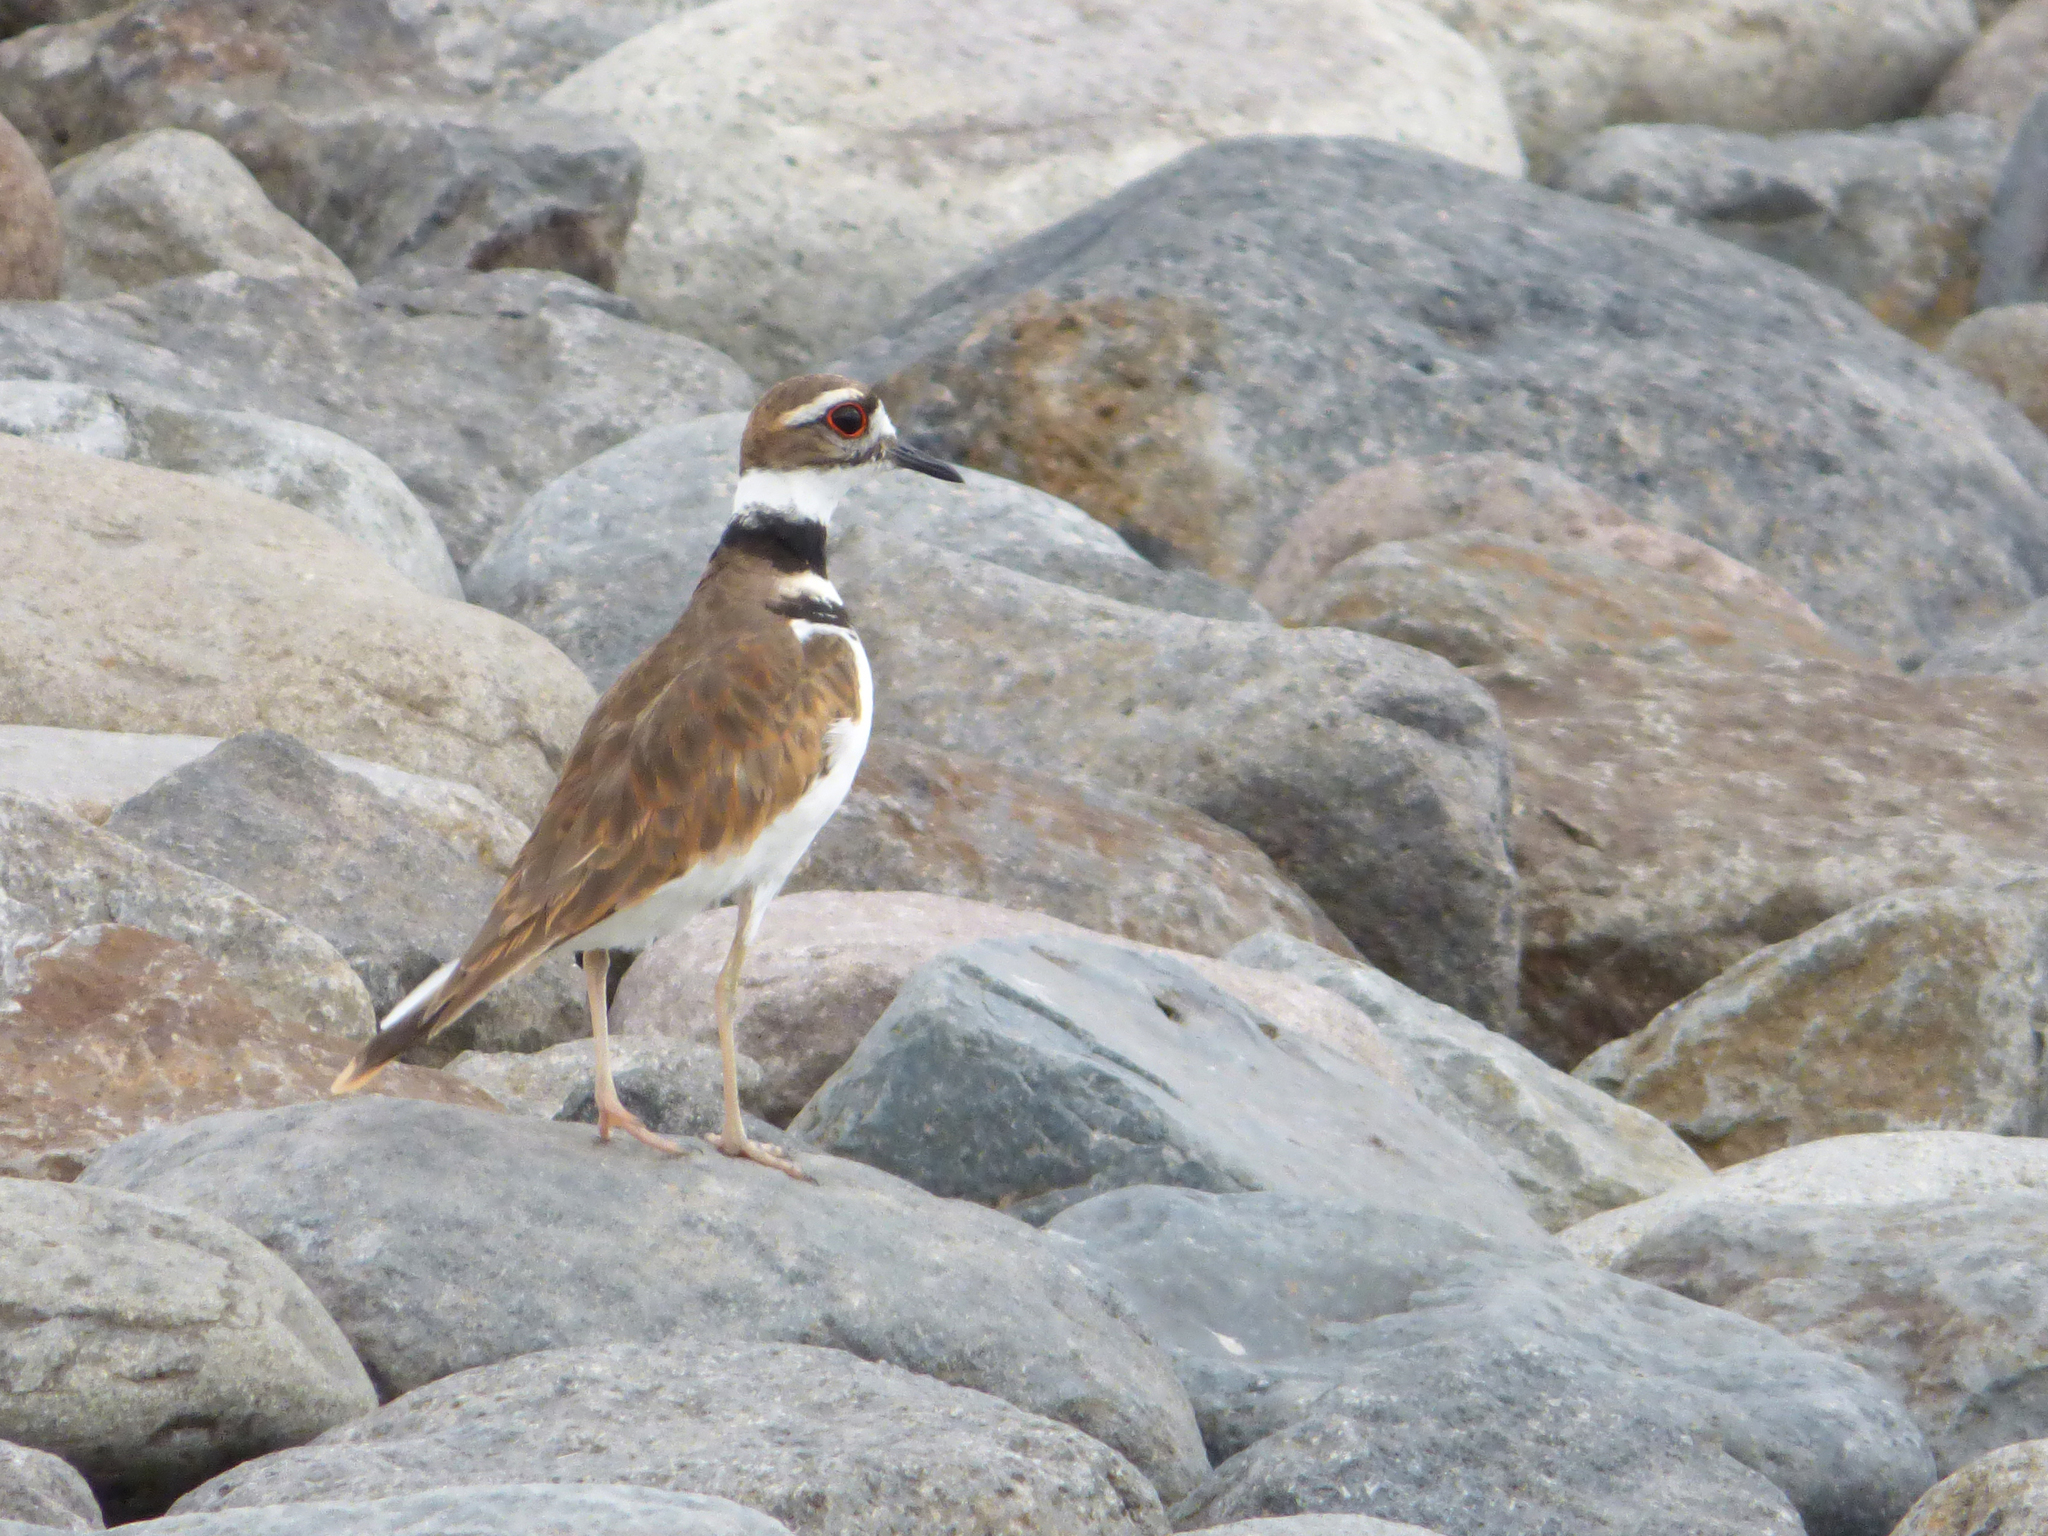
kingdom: Animalia
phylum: Chordata
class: Aves
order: Charadriiformes
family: Charadriidae
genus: Charadrius
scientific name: Charadrius vociferus
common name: Killdeer
